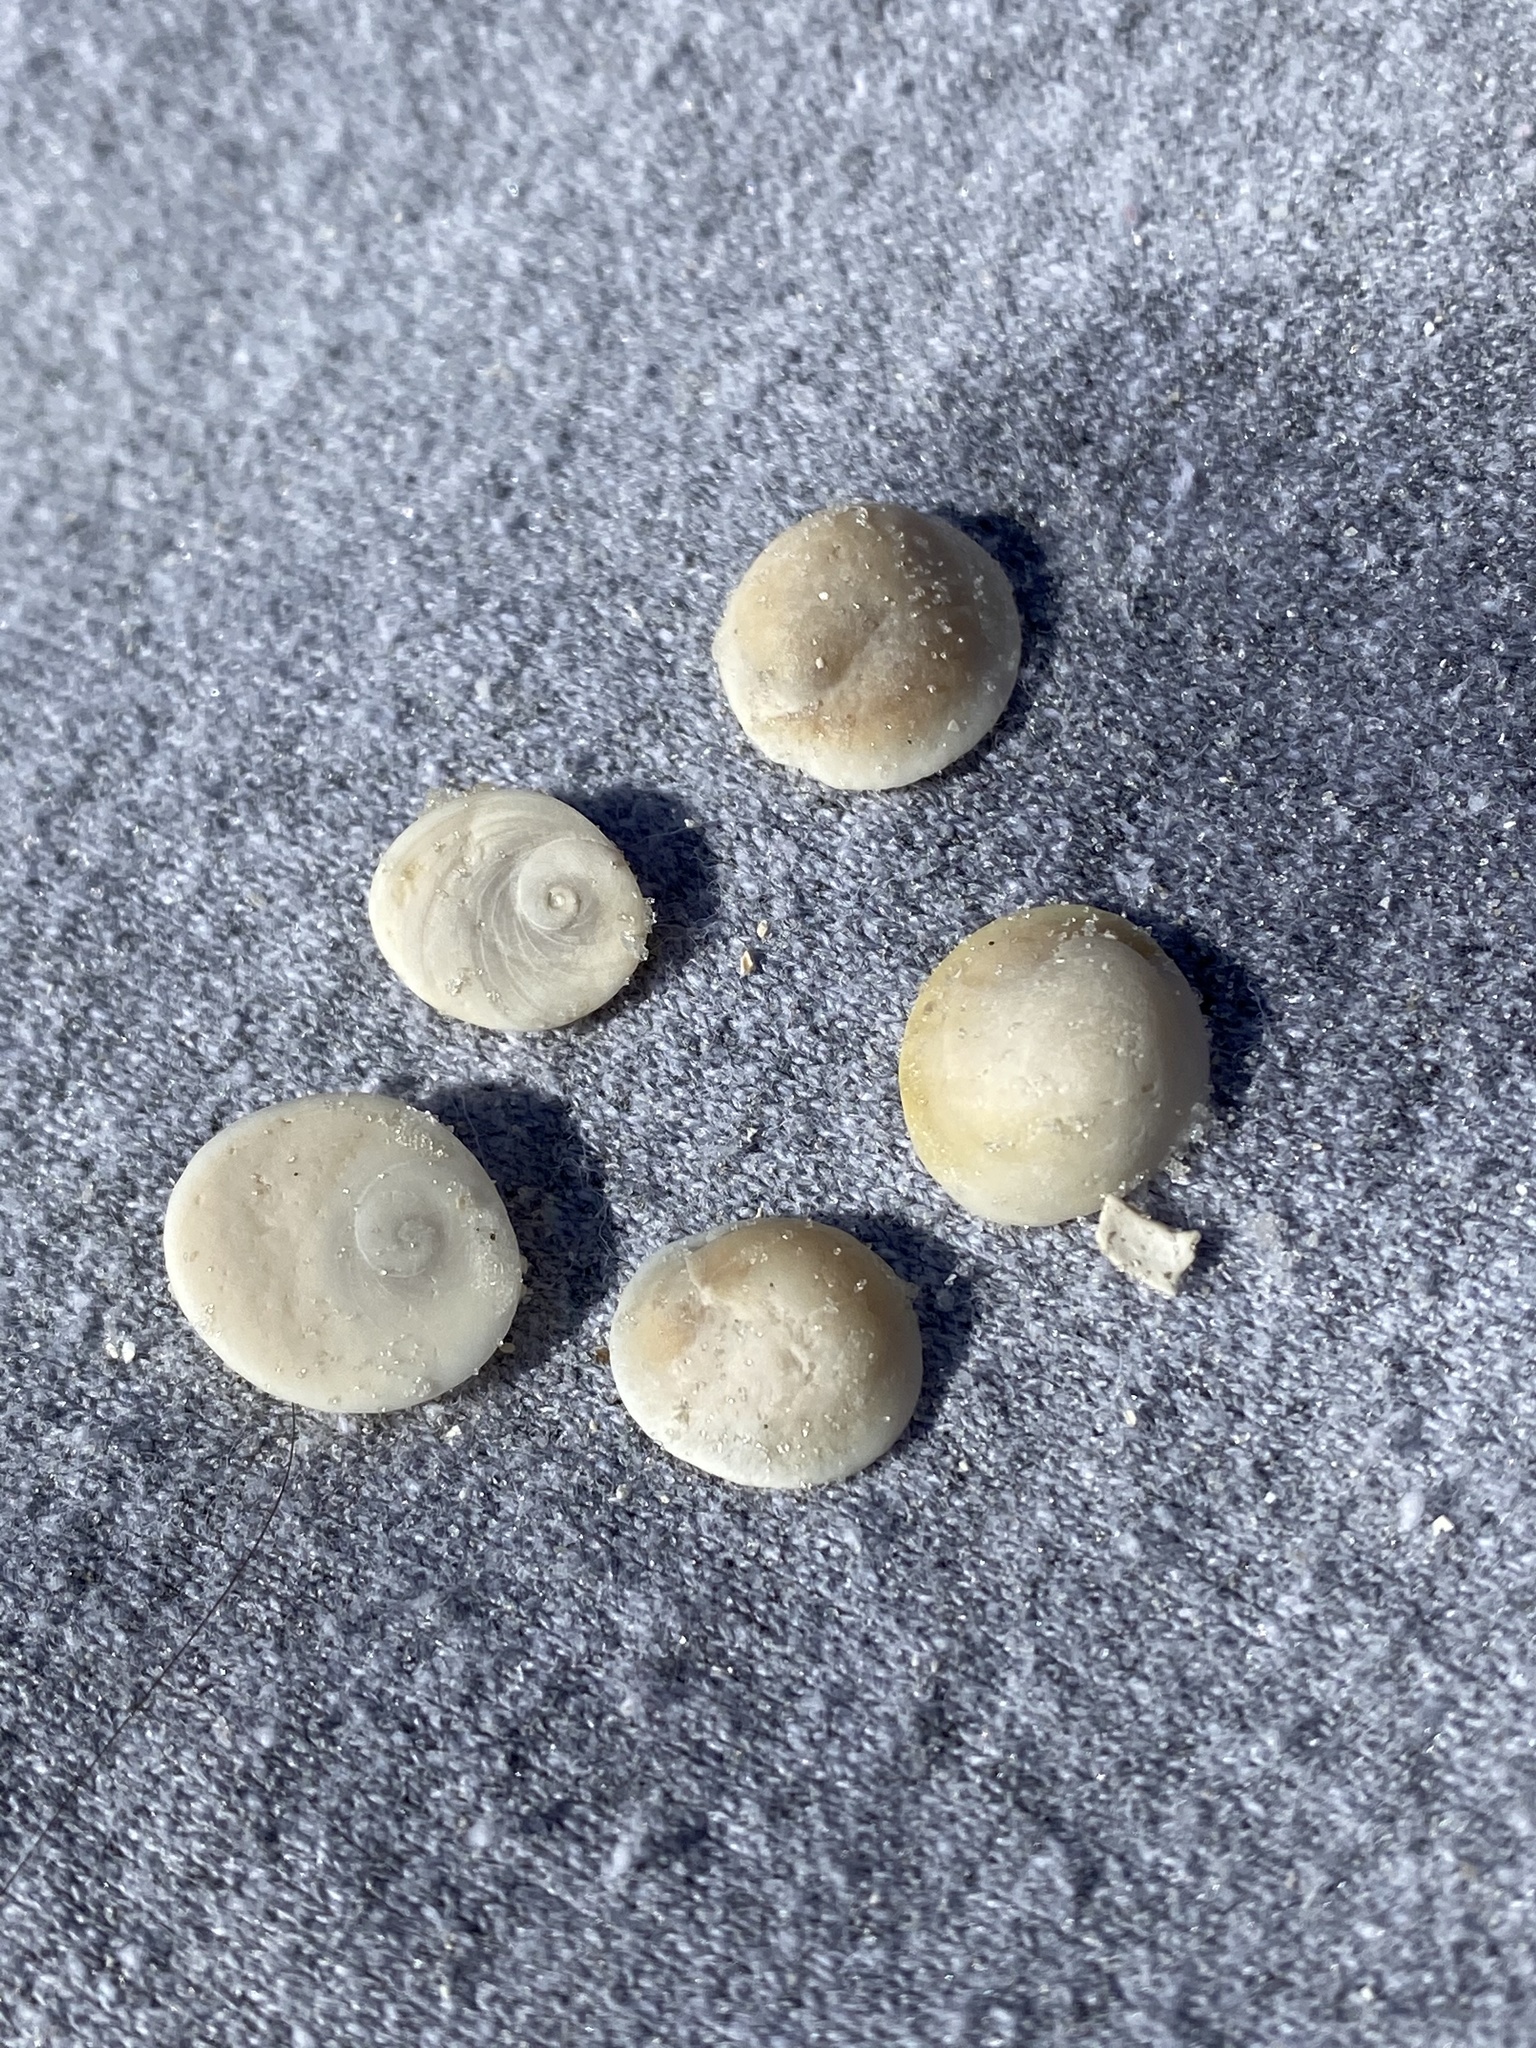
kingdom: Animalia
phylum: Mollusca
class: Gastropoda
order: Trochida
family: Turbinidae
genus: Turbo
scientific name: Turbo castanea
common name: Chestnut turban
